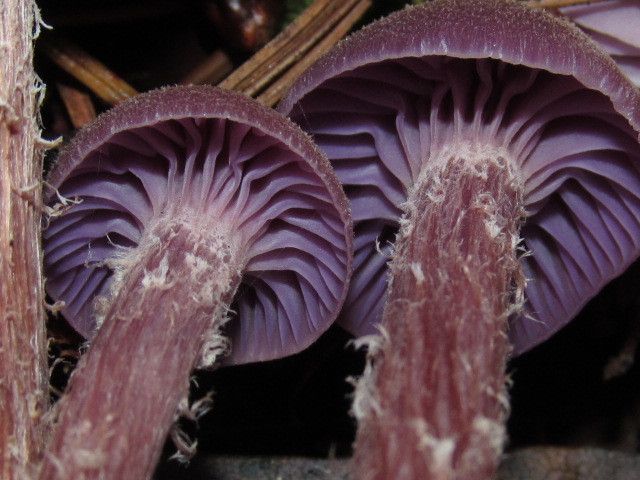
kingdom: Fungi
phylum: Basidiomycota
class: Agaricomycetes
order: Agaricales
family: Hydnangiaceae
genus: Laccaria
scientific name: Laccaria amethysteo-occidentalis
